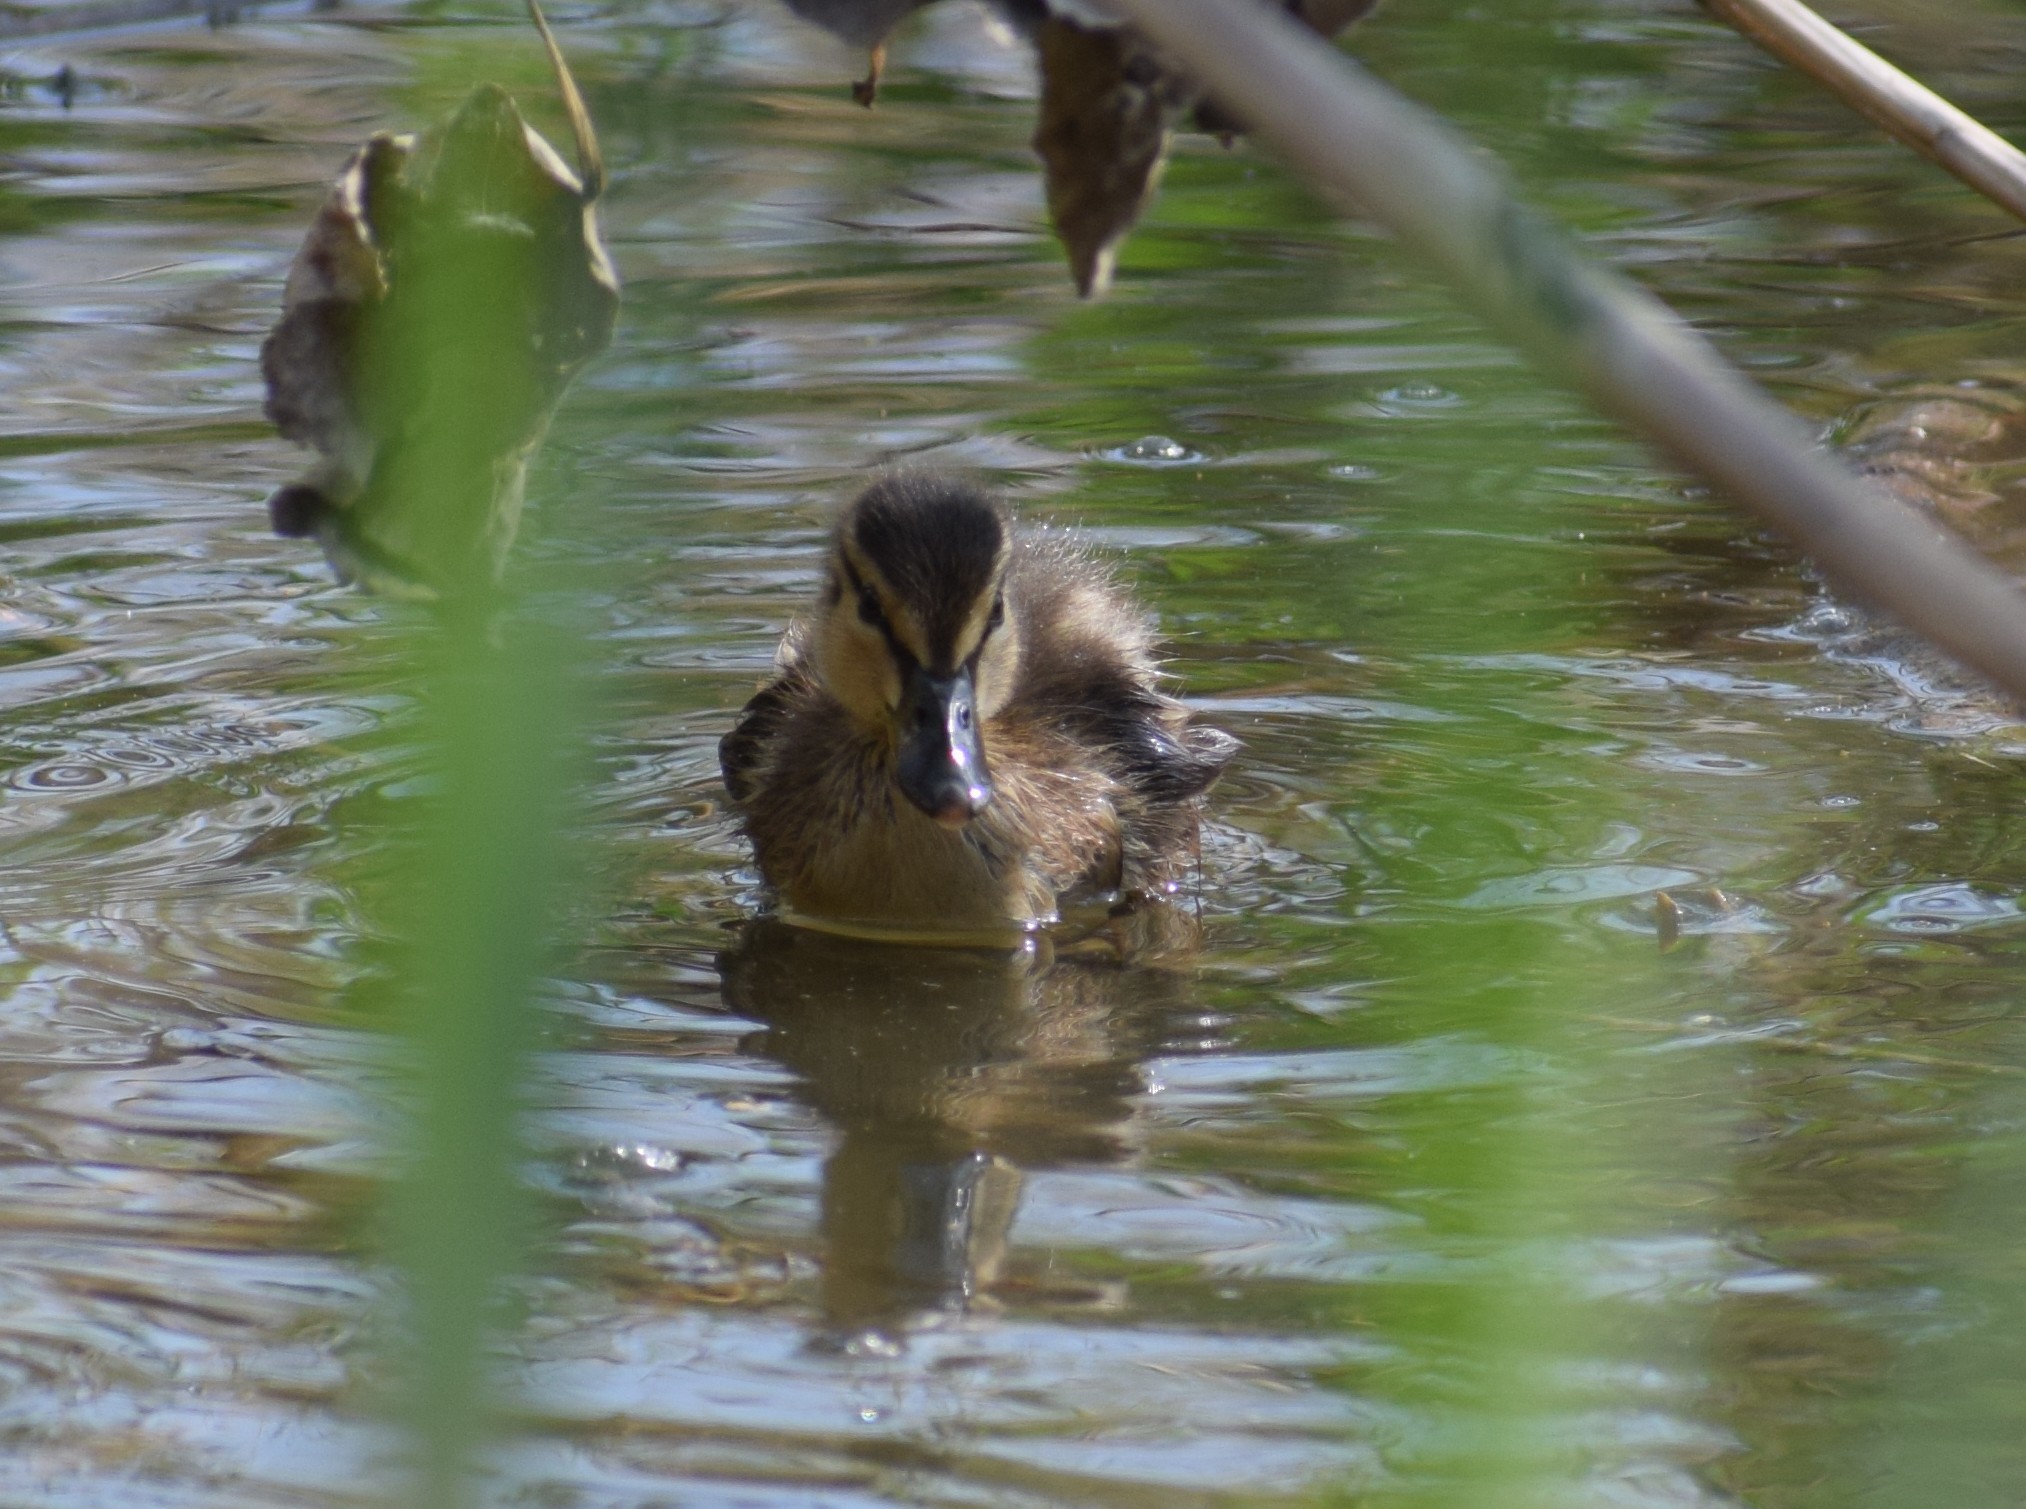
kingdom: Animalia
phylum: Chordata
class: Aves
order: Anseriformes
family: Anatidae
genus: Anas
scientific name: Anas platyrhynchos
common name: Mallard
